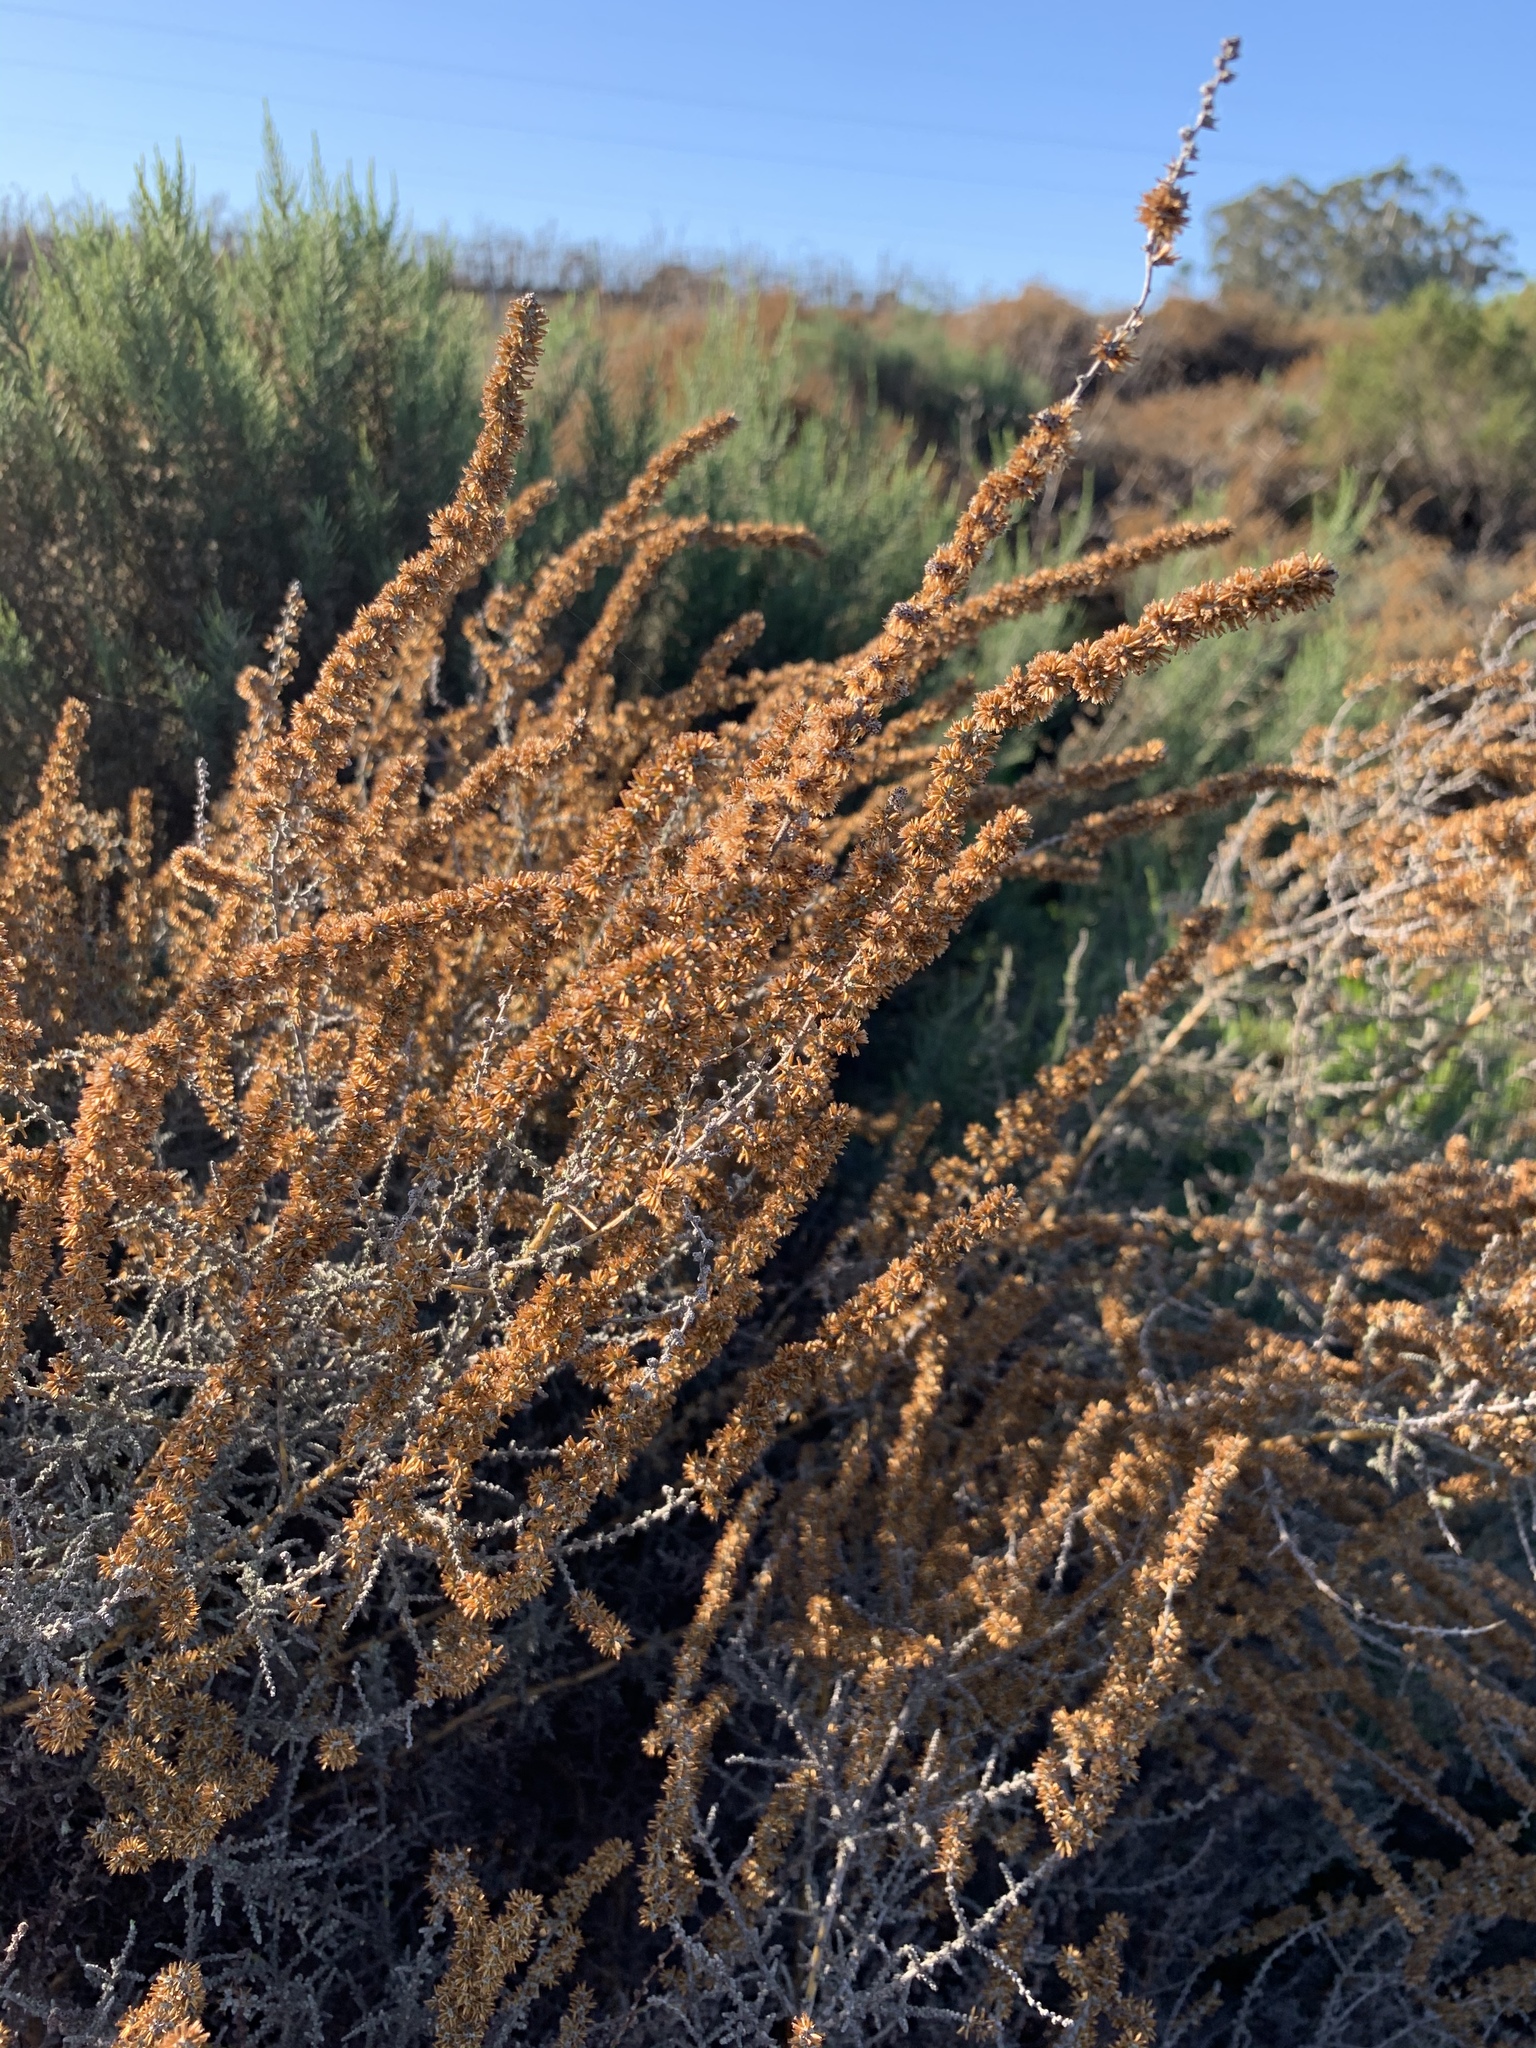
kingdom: Plantae
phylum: Tracheophyta
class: Magnoliopsida
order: Asterales
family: Asteraceae
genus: Seriphium
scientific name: Seriphium plumosum
